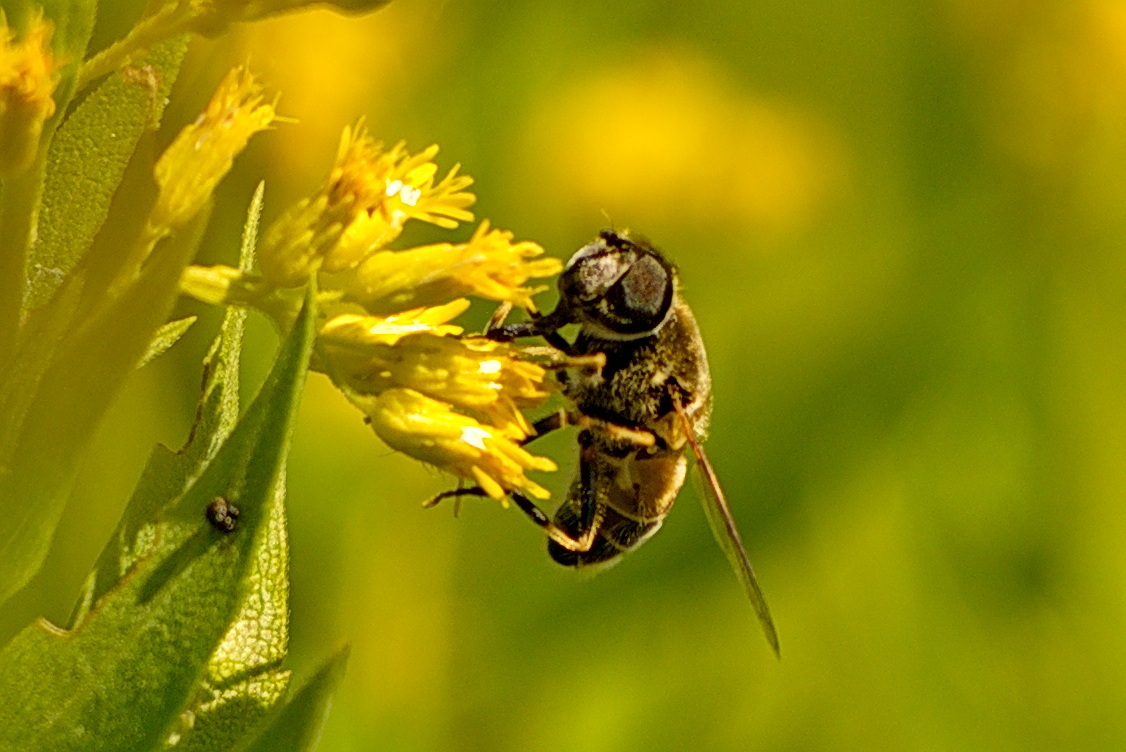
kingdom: Animalia
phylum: Arthropoda
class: Insecta
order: Diptera
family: Syrphidae
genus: Eoseristalis
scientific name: Eoseristalis
